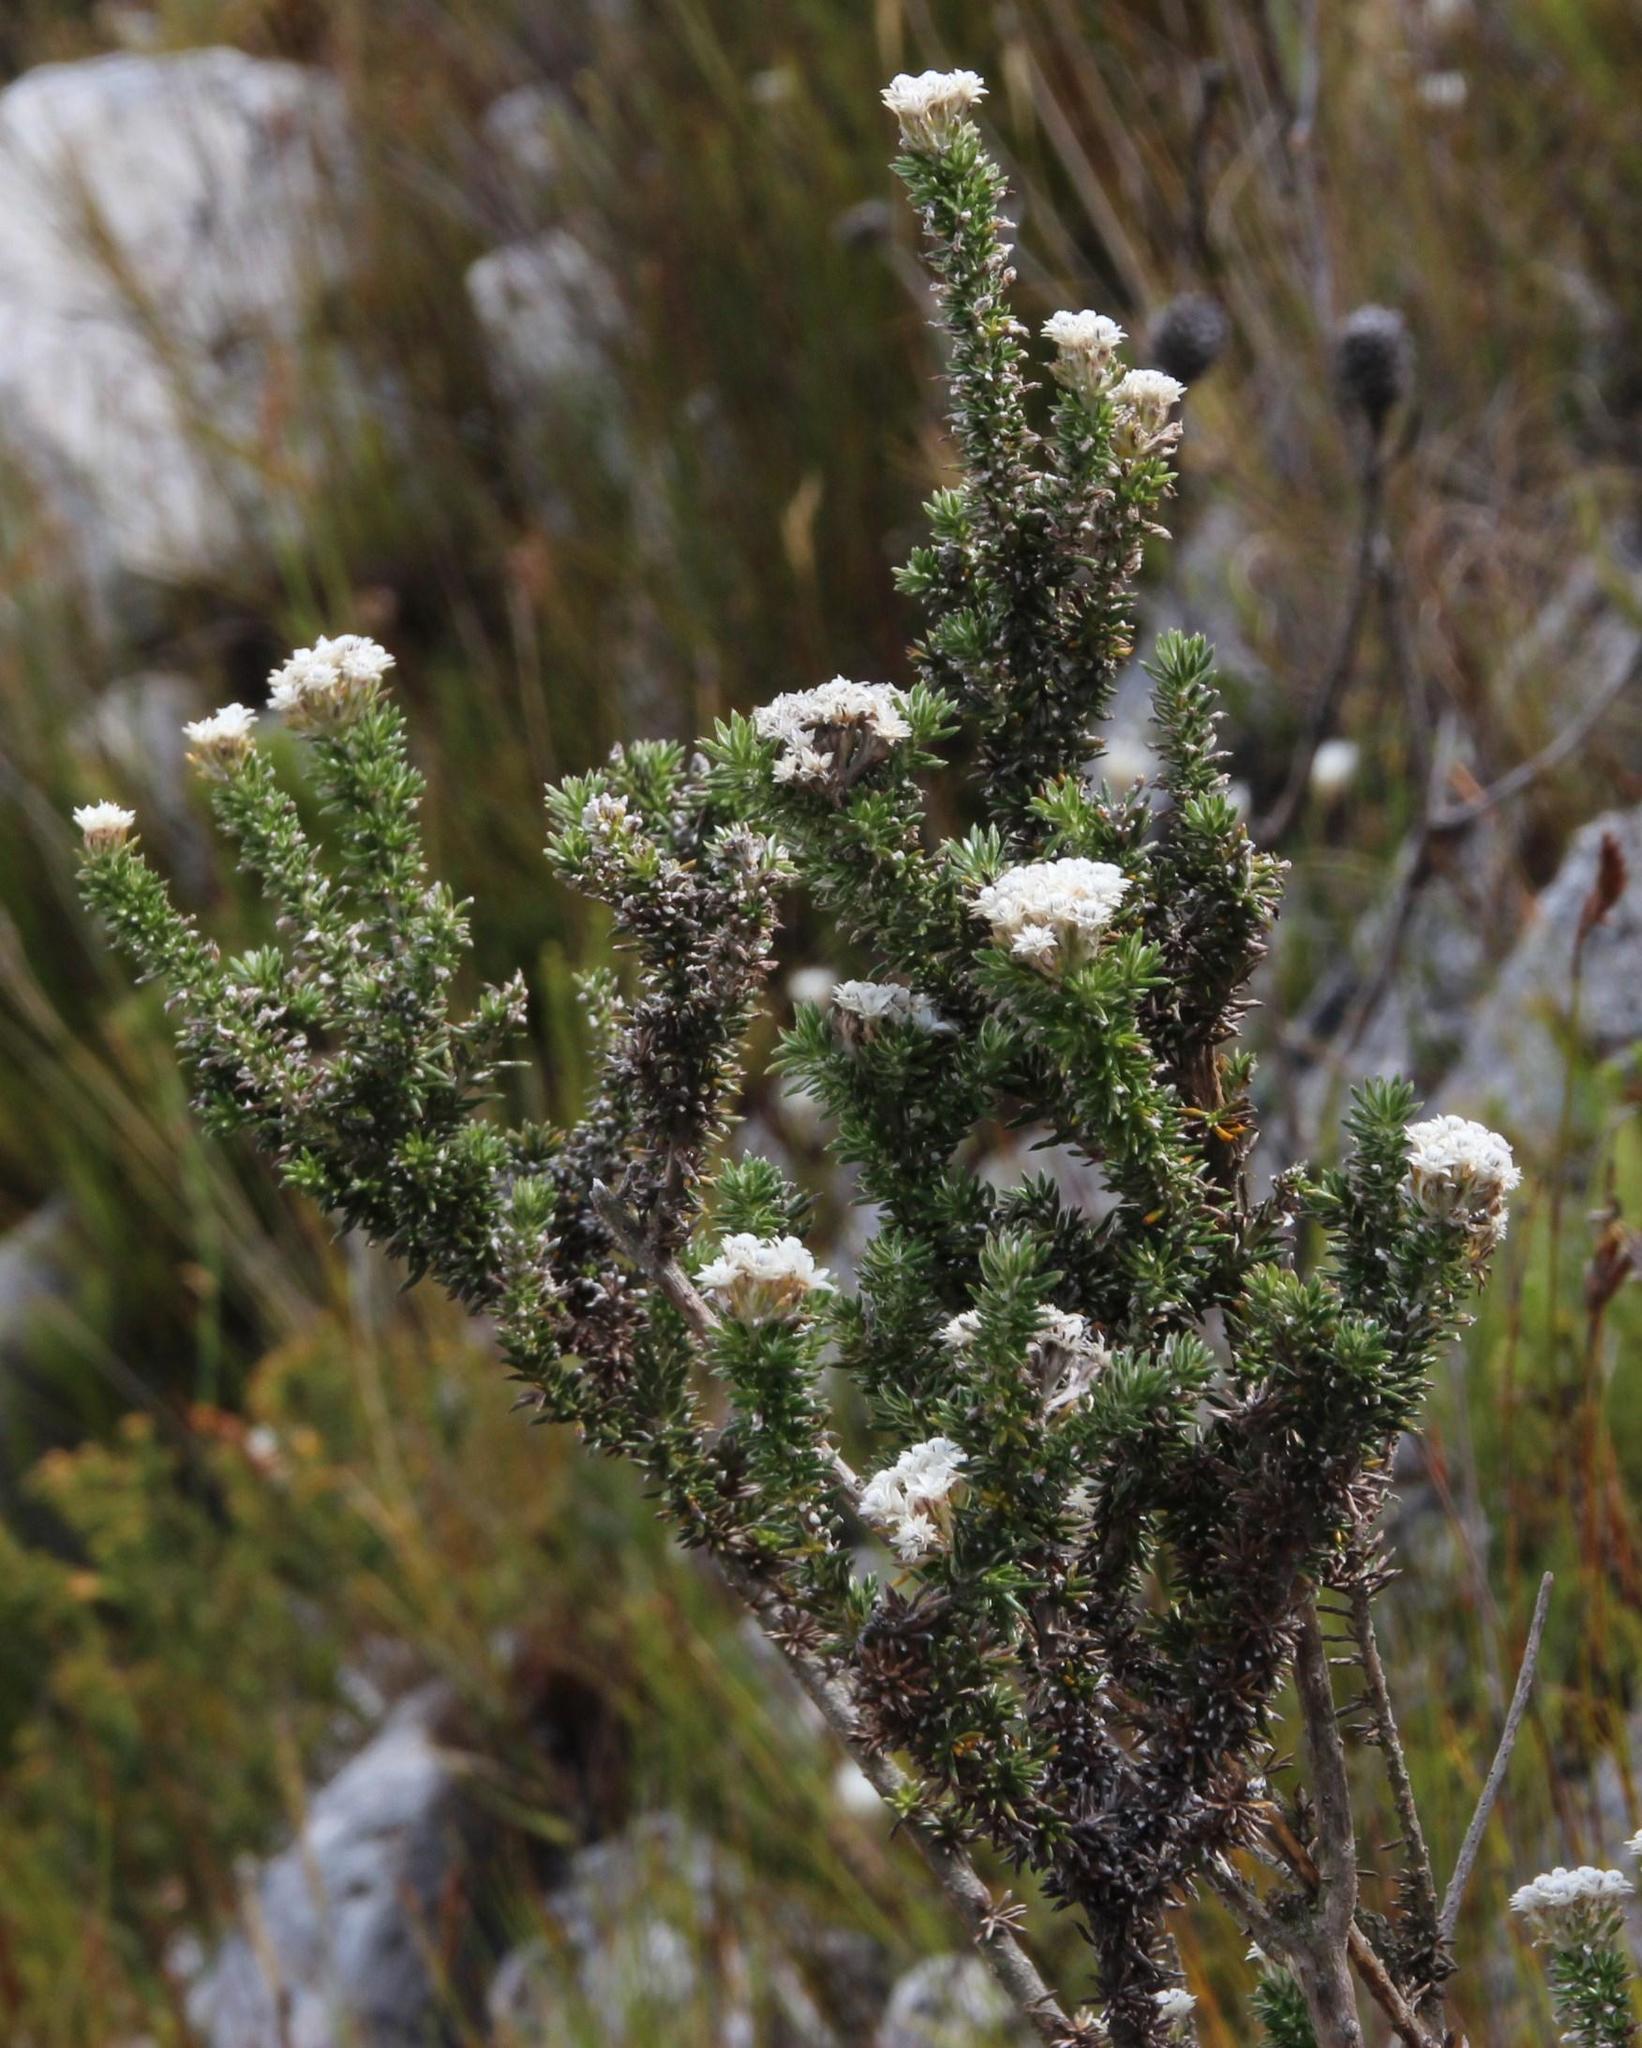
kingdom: Plantae
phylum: Tracheophyta
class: Magnoliopsida
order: Asterales
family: Asteraceae
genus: Metalasia
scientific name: Metalasia lichtensteinii
